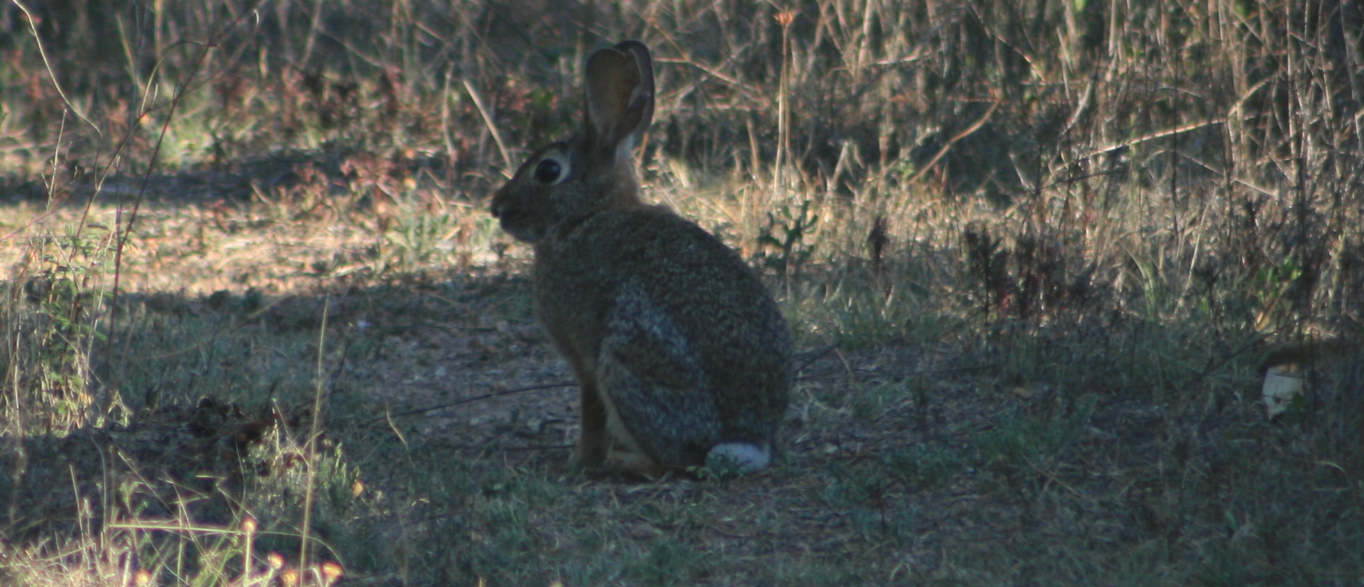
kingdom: Animalia
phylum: Chordata
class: Mammalia
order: Lagomorpha
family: Leporidae
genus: Sylvilagus
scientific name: Sylvilagus floridanus
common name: Eastern cottontail
